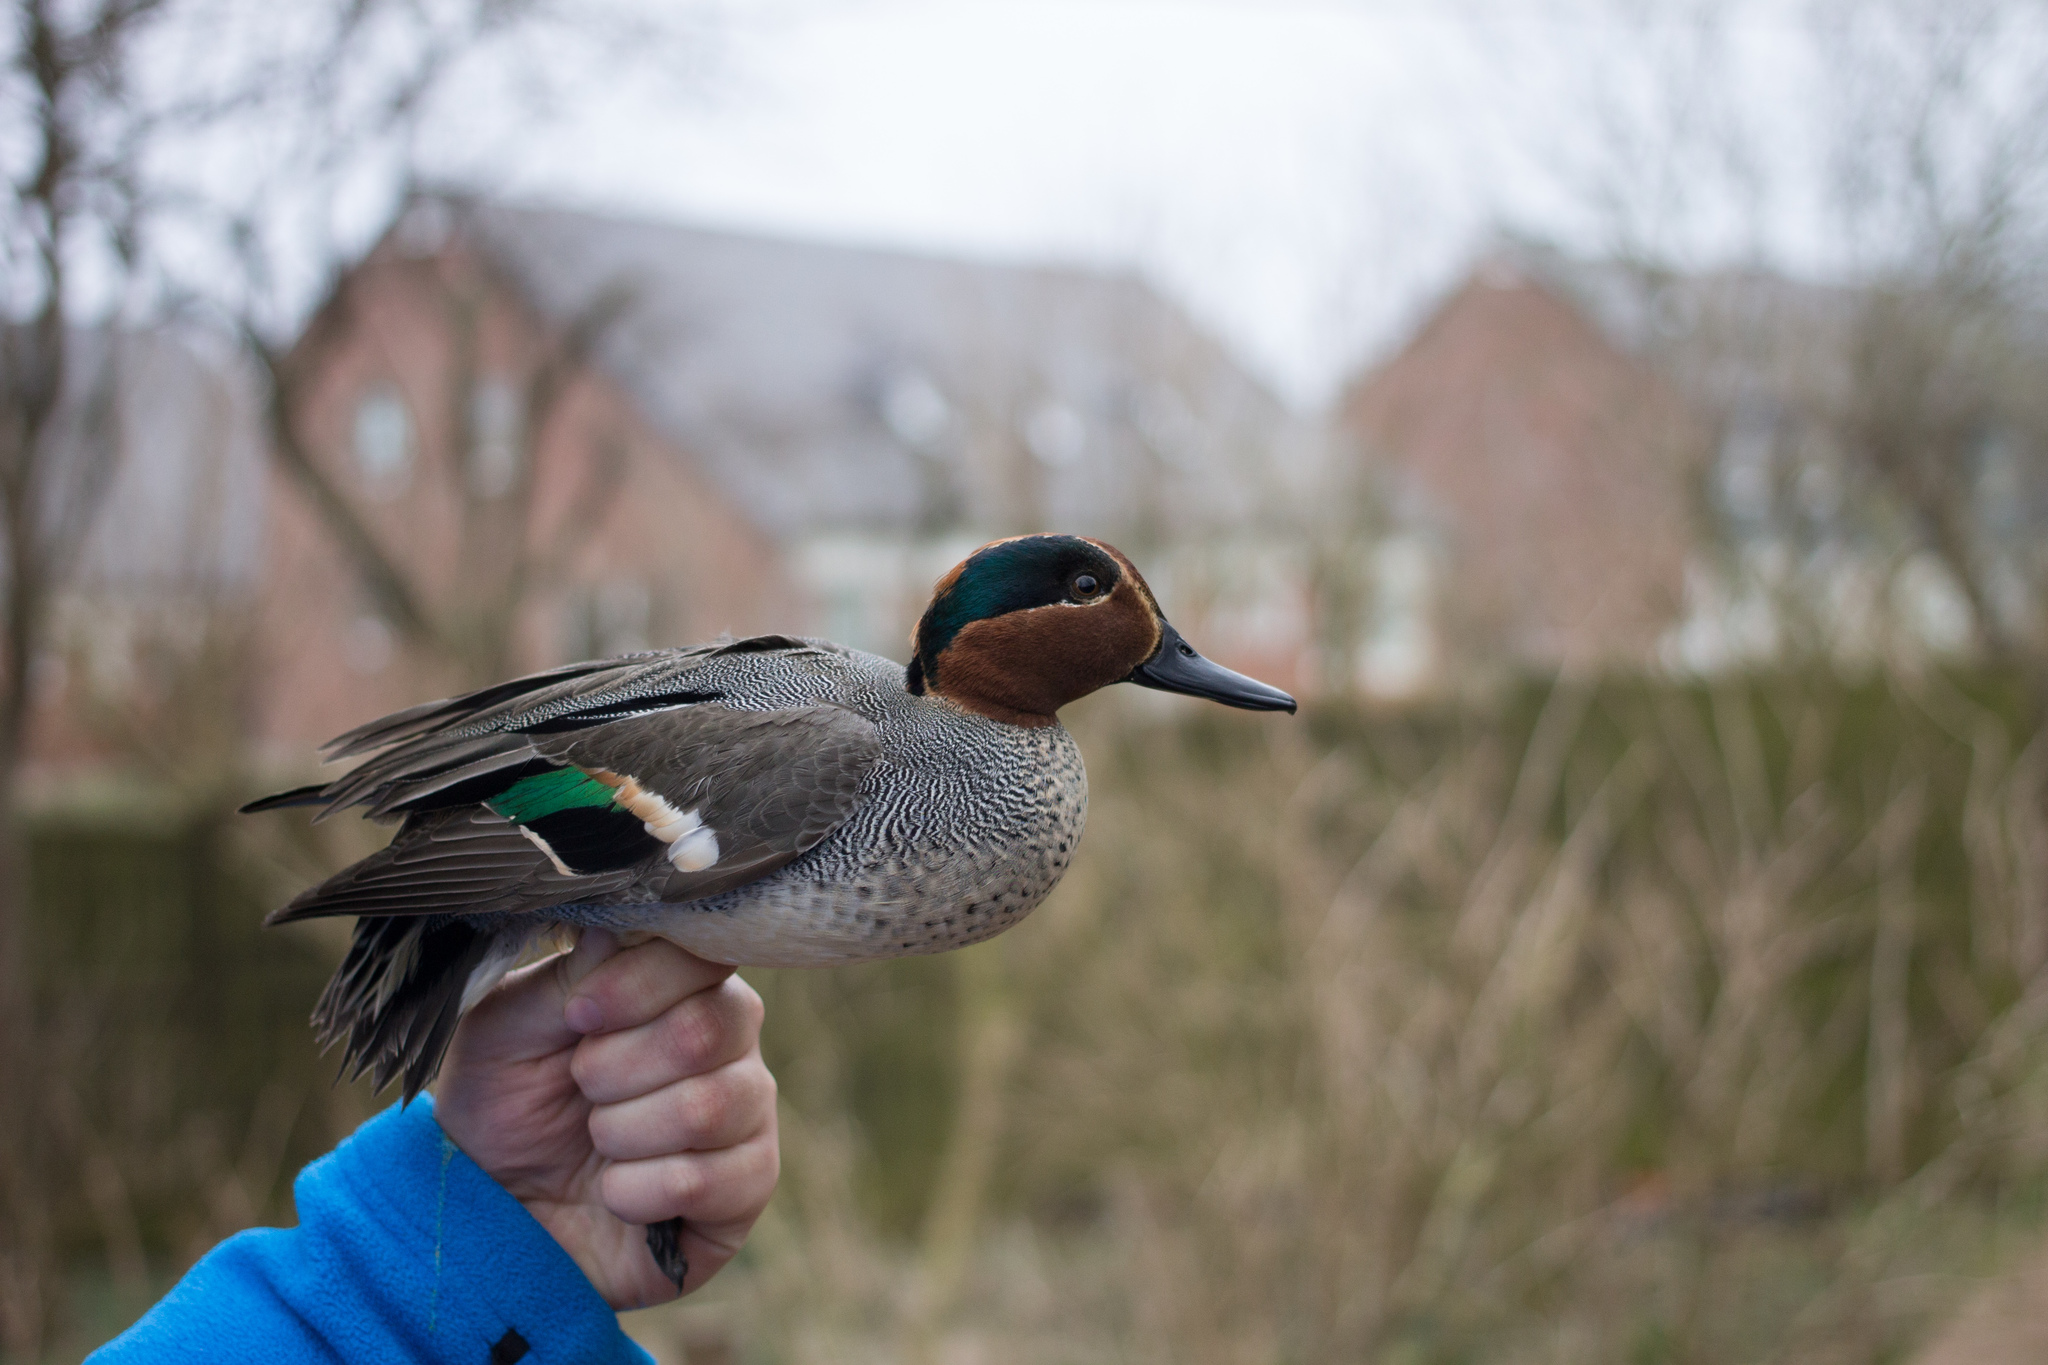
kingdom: Animalia
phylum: Chordata
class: Aves
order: Anseriformes
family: Anatidae
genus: Anas
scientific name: Anas crecca
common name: Eurasian teal
